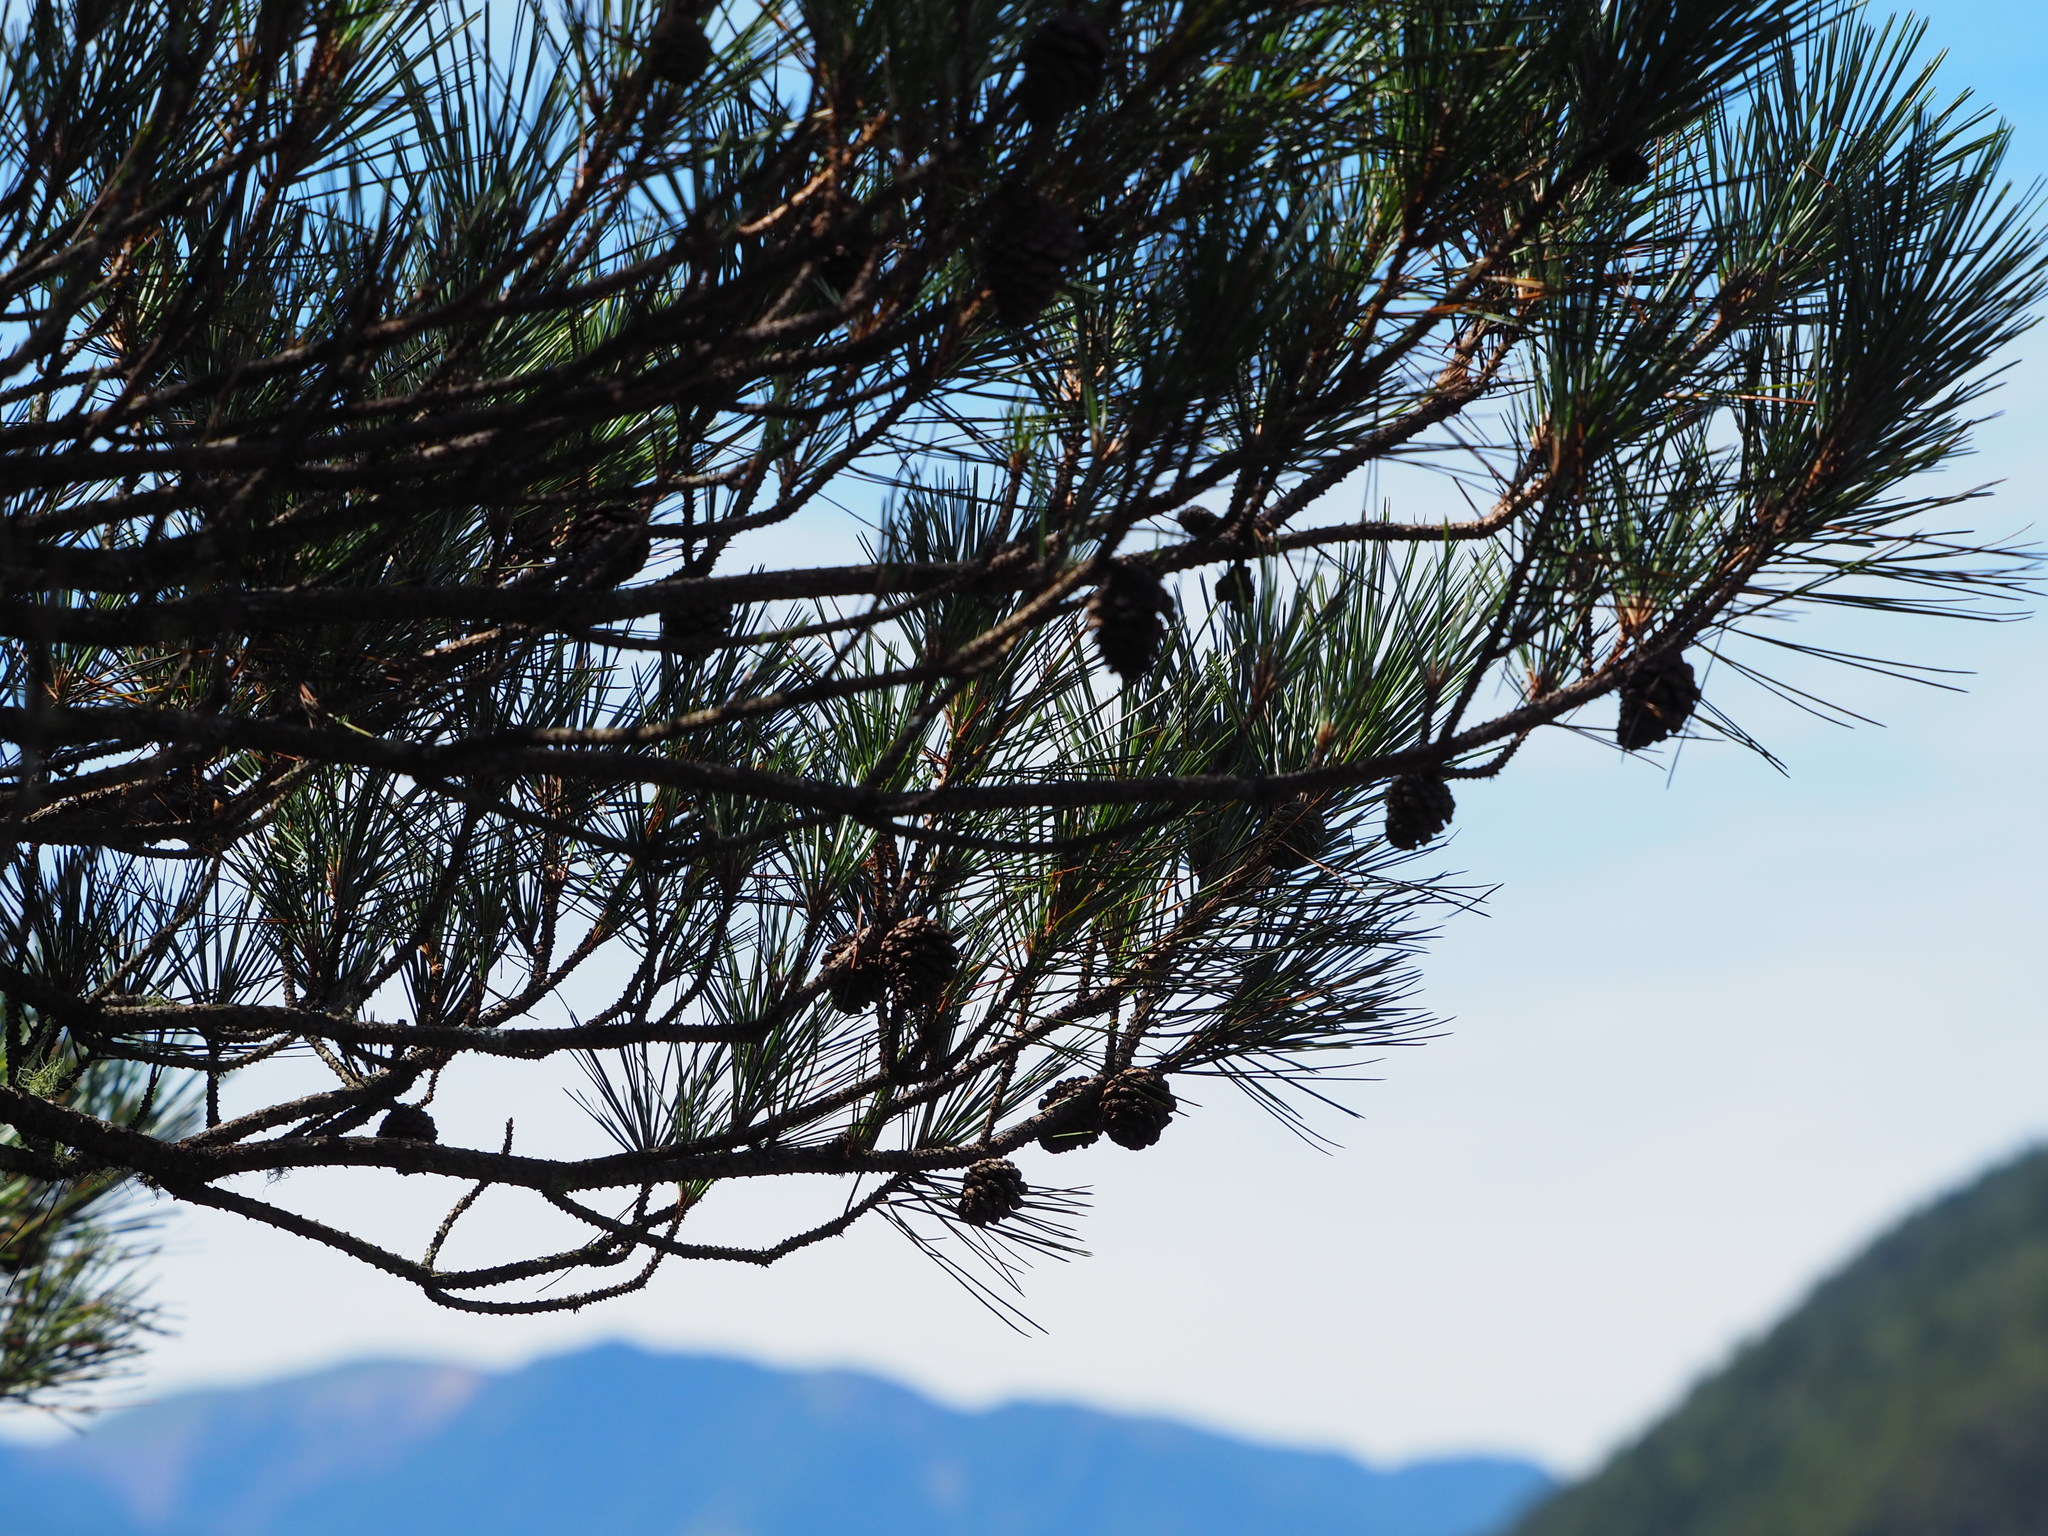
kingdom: Plantae
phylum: Tracheophyta
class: Pinopsida
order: Pinales
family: Pinaceae
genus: Pinus
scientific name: Pinus taiwanensis
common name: Formosa pine
